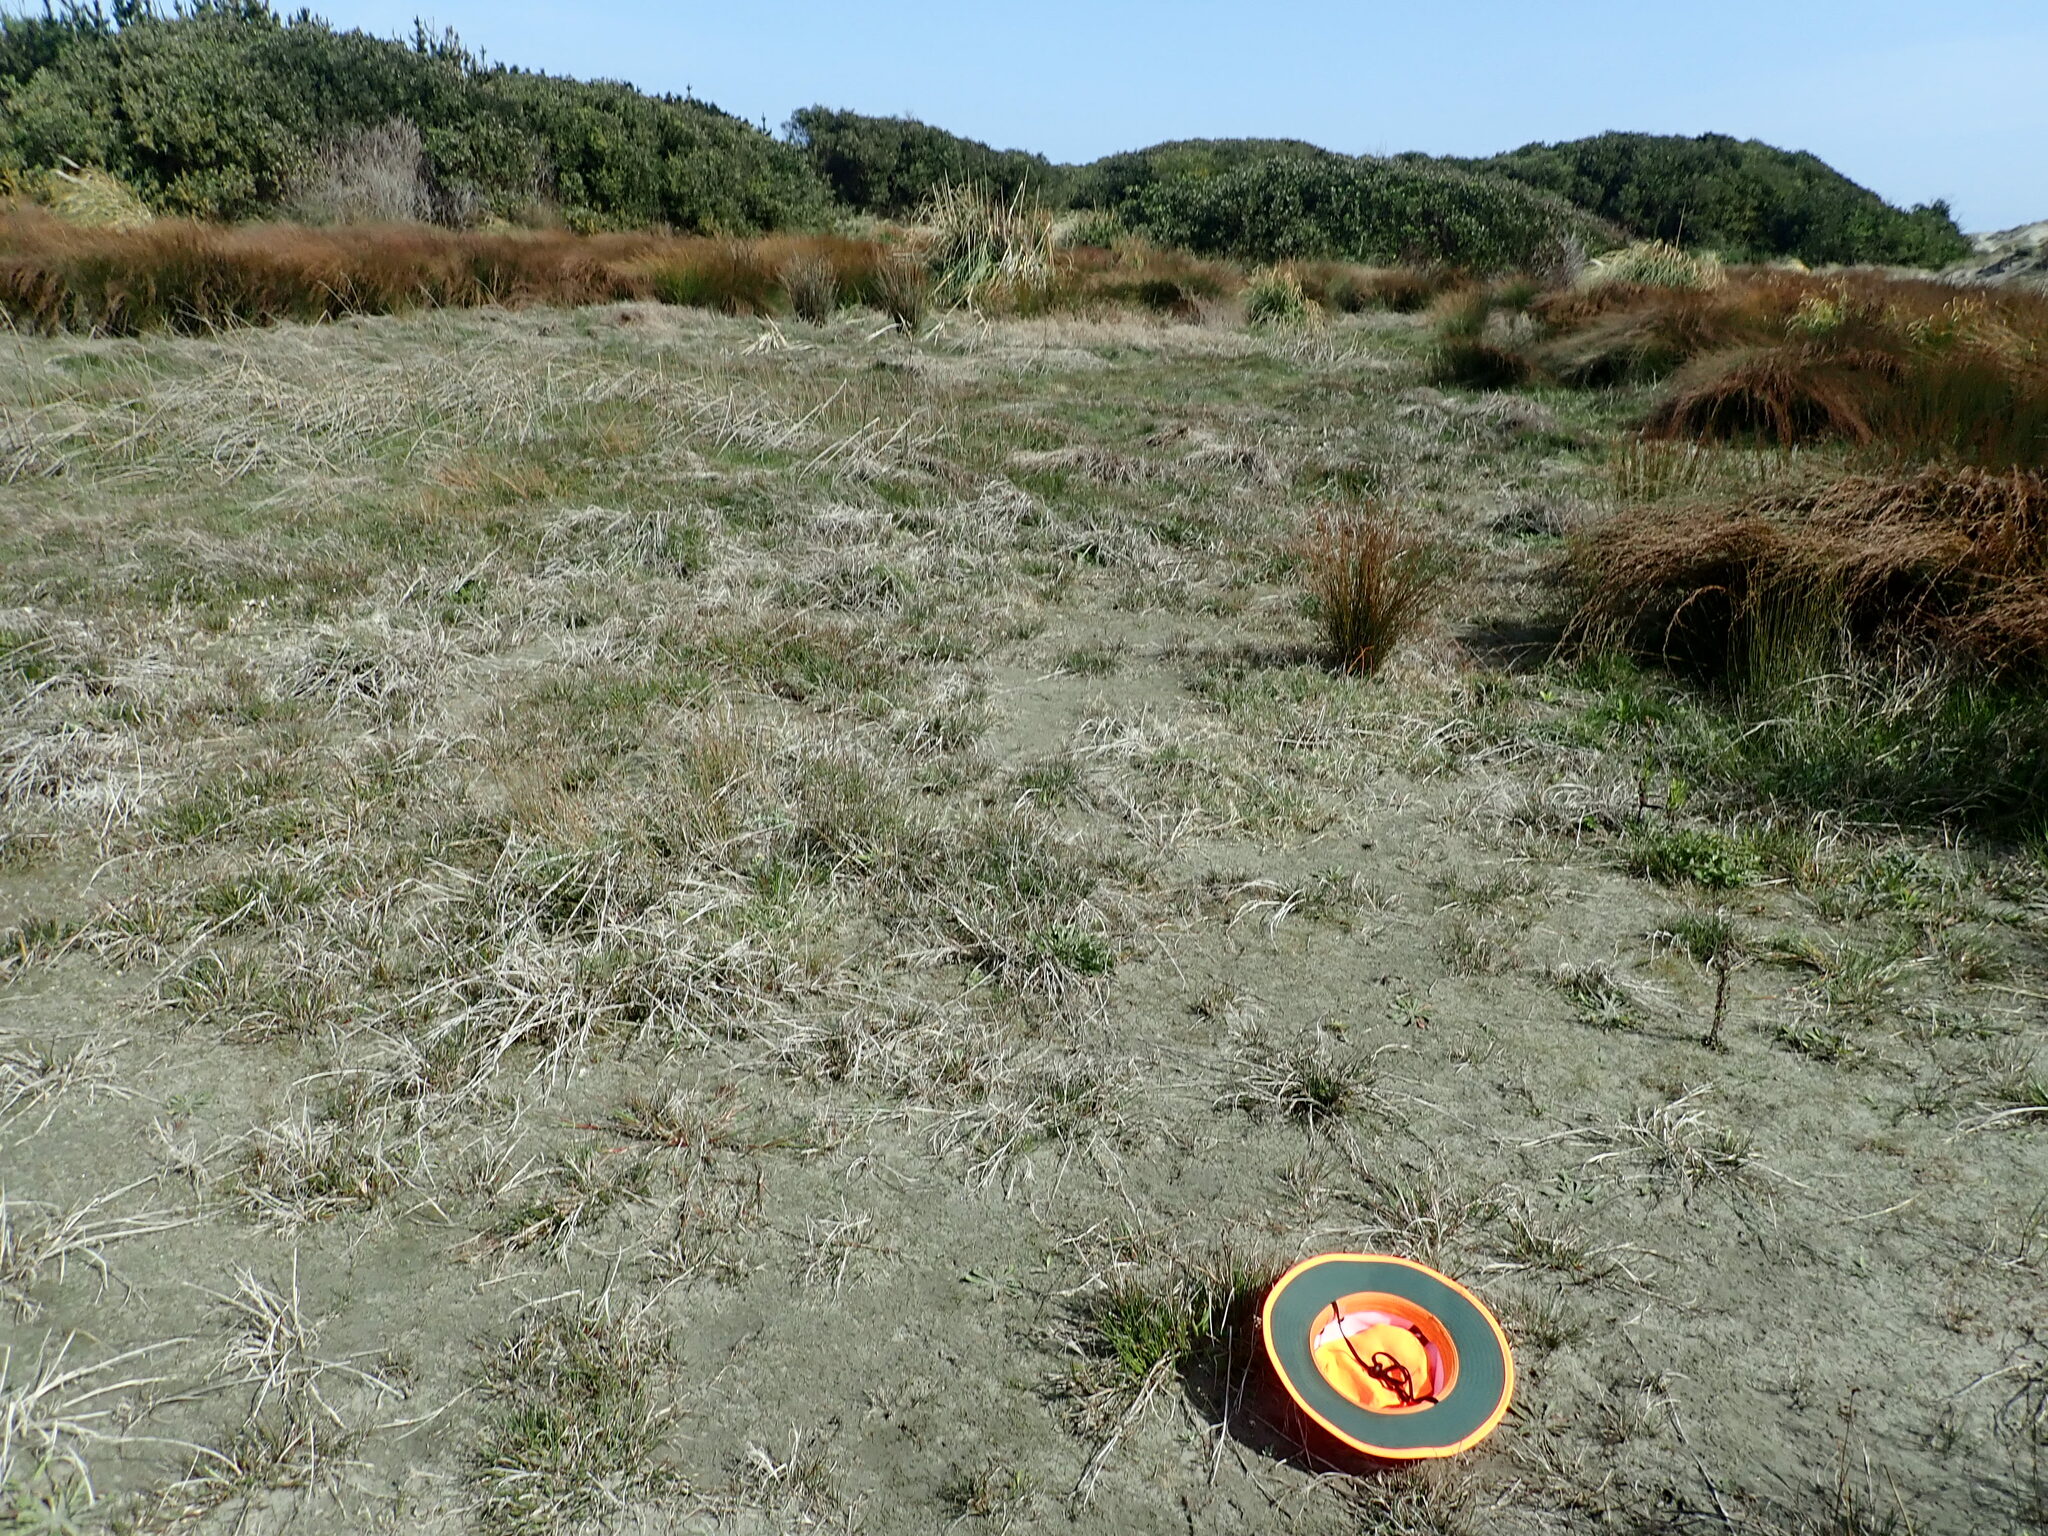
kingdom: Plantae
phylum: Tracheophyta
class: Liliopsida
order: Poales
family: Juncaceae
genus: Juncus
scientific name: Juncus articulatus
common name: Jointed rush
